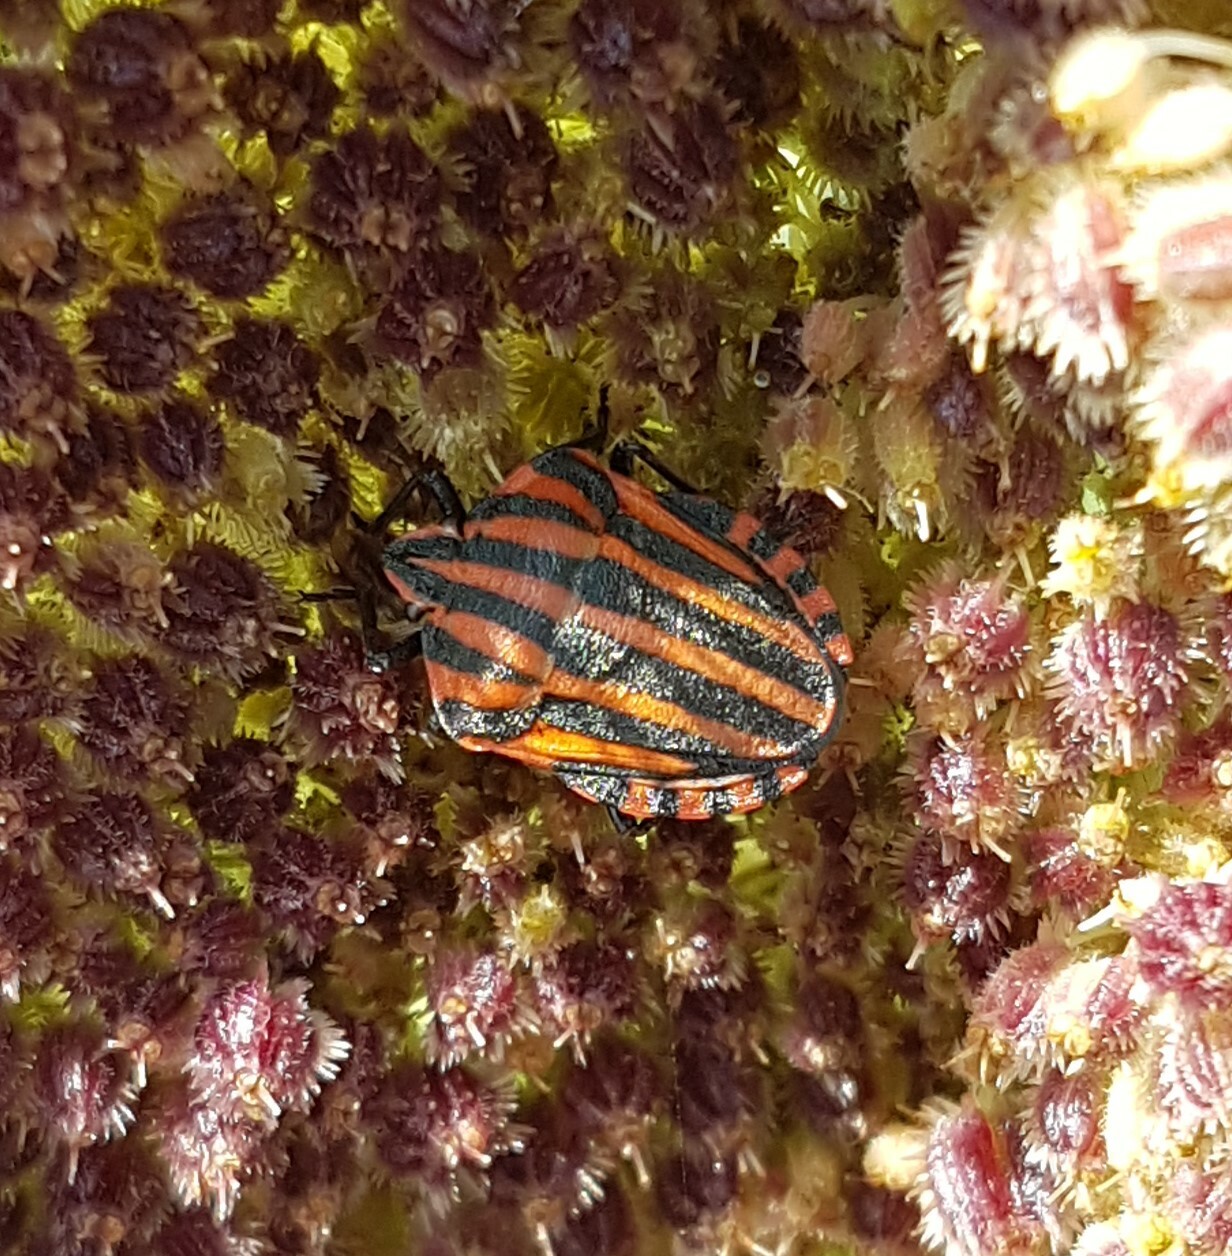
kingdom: Animalia
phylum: Arthropoda
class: Insecta
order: Hemiptera
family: Pentatomidae
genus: Graphosoma
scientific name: Graphosoma italicum
